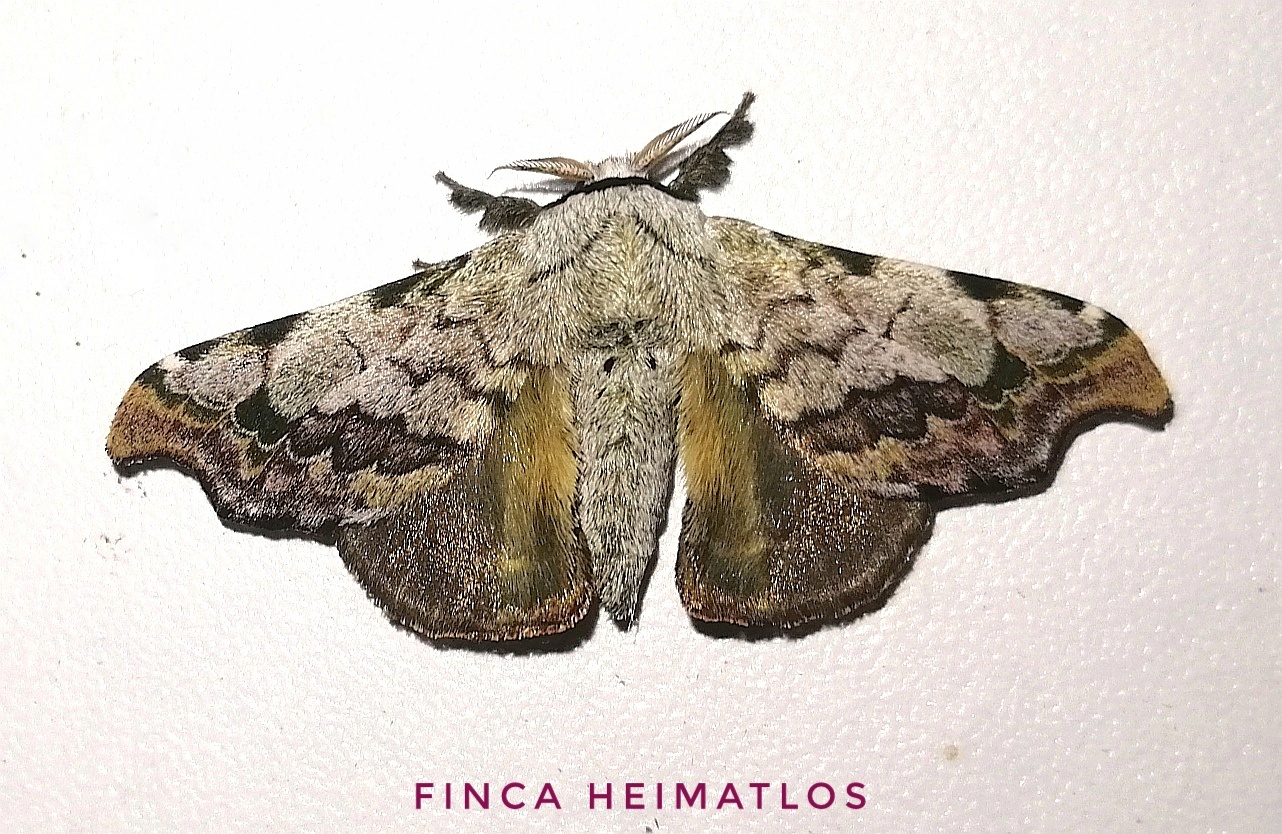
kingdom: Animalia
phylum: Arthropoda
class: Insecta
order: Lepidoptera
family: Bombycidae
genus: Quentalia
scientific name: Quentalia ephonia
